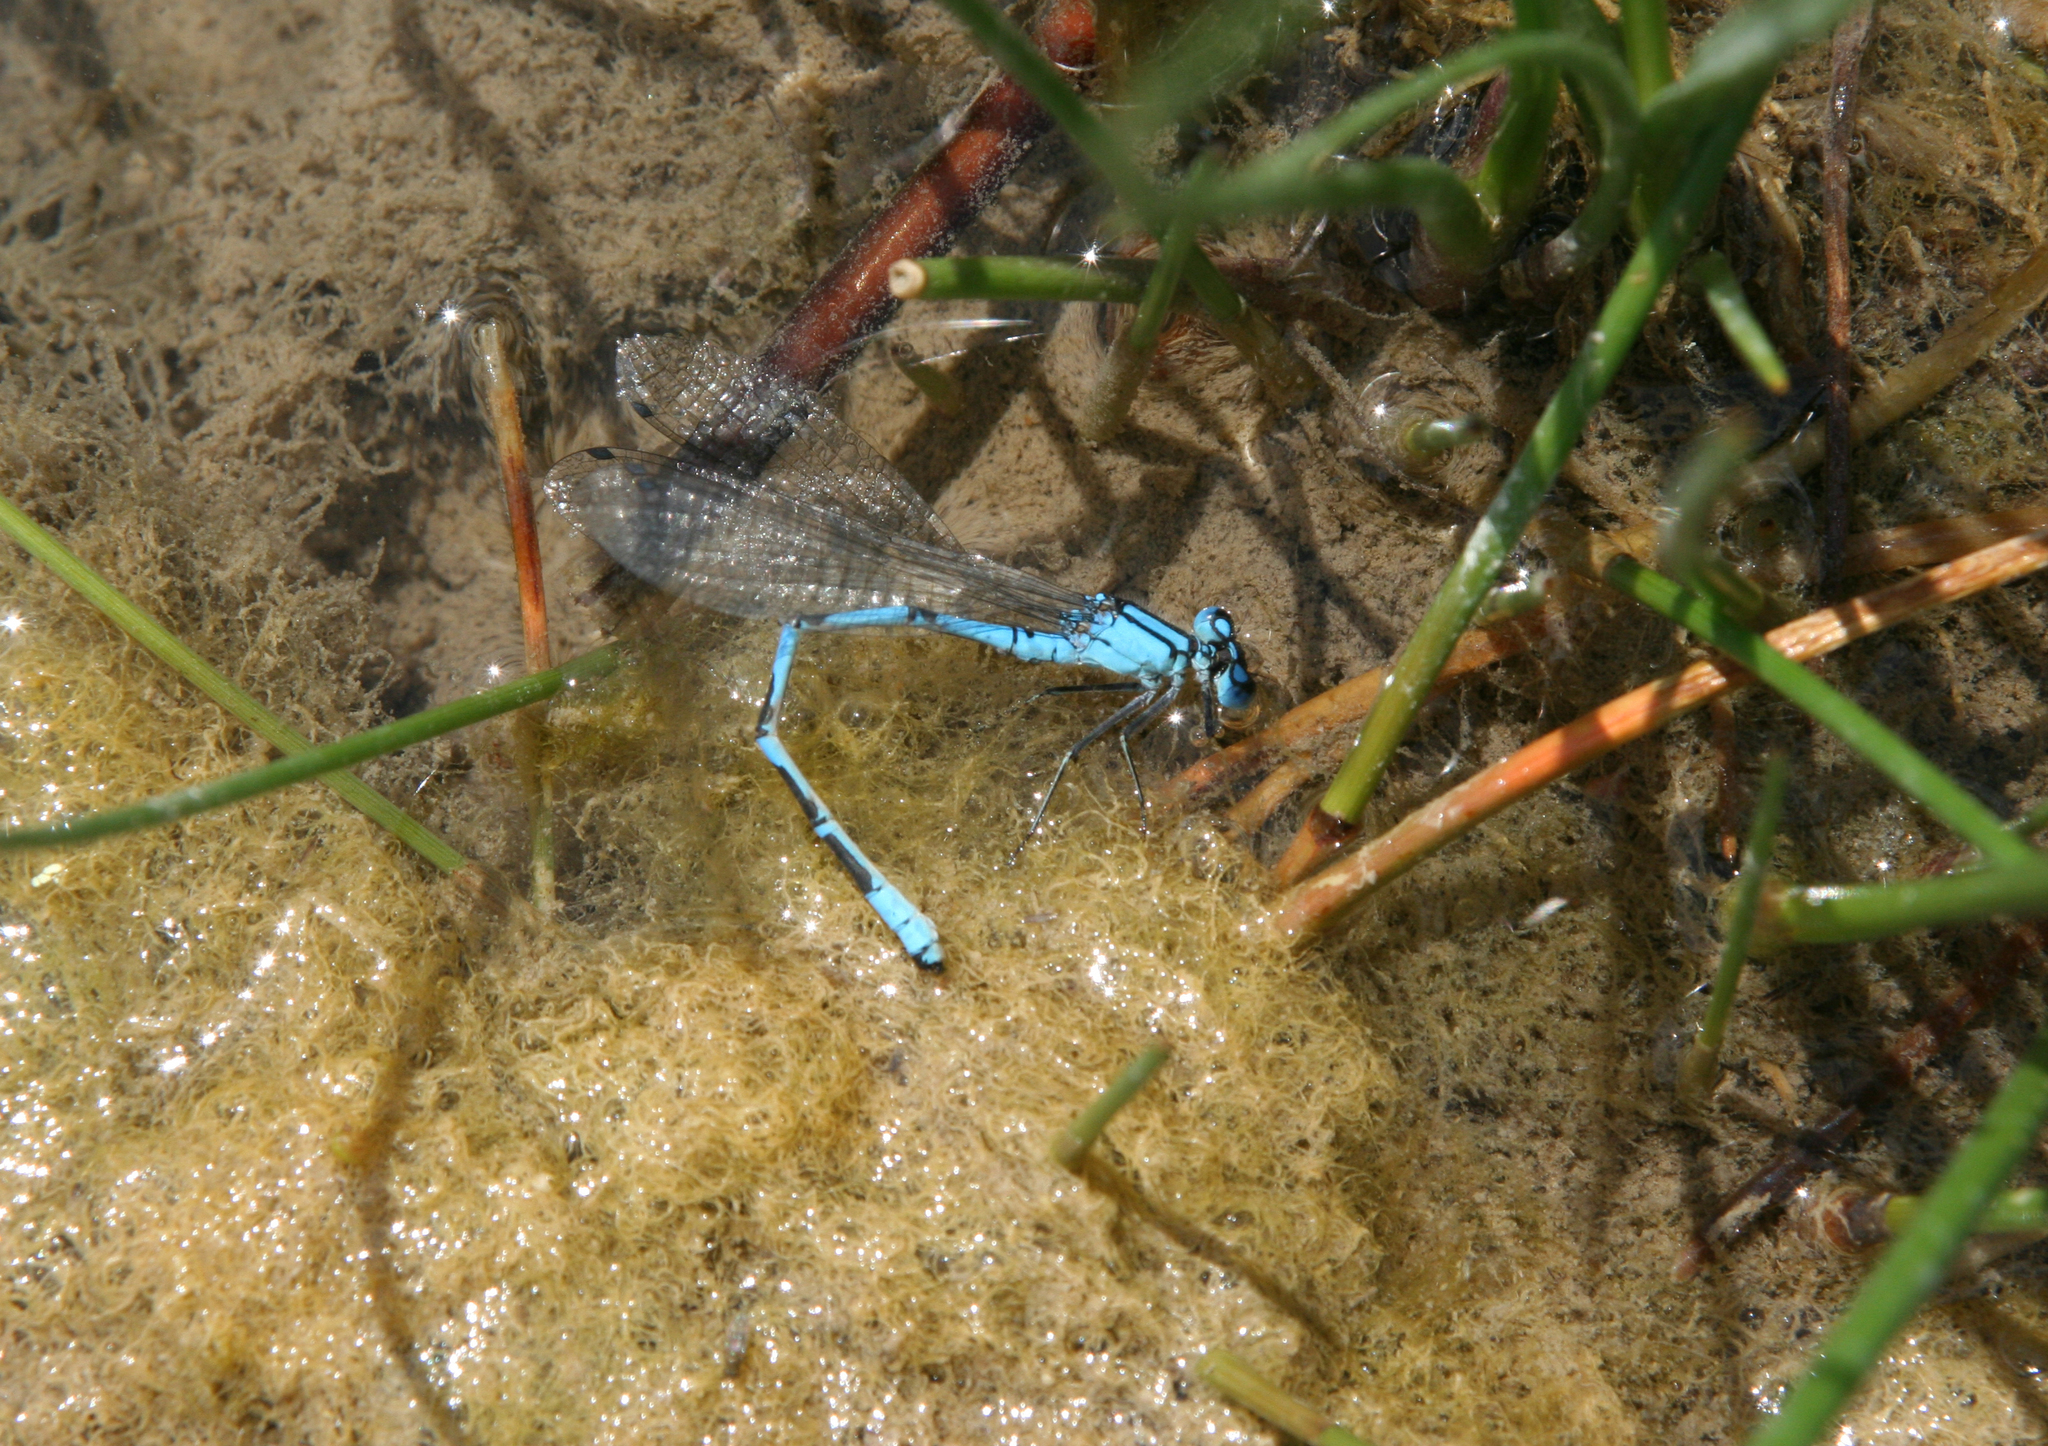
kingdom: Animalia
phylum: Arthropoda
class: Insecta
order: Odonata
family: Coenagrionidae
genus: Enallagma
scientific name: Enallagma cyathigerum
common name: Common blue damselfly
